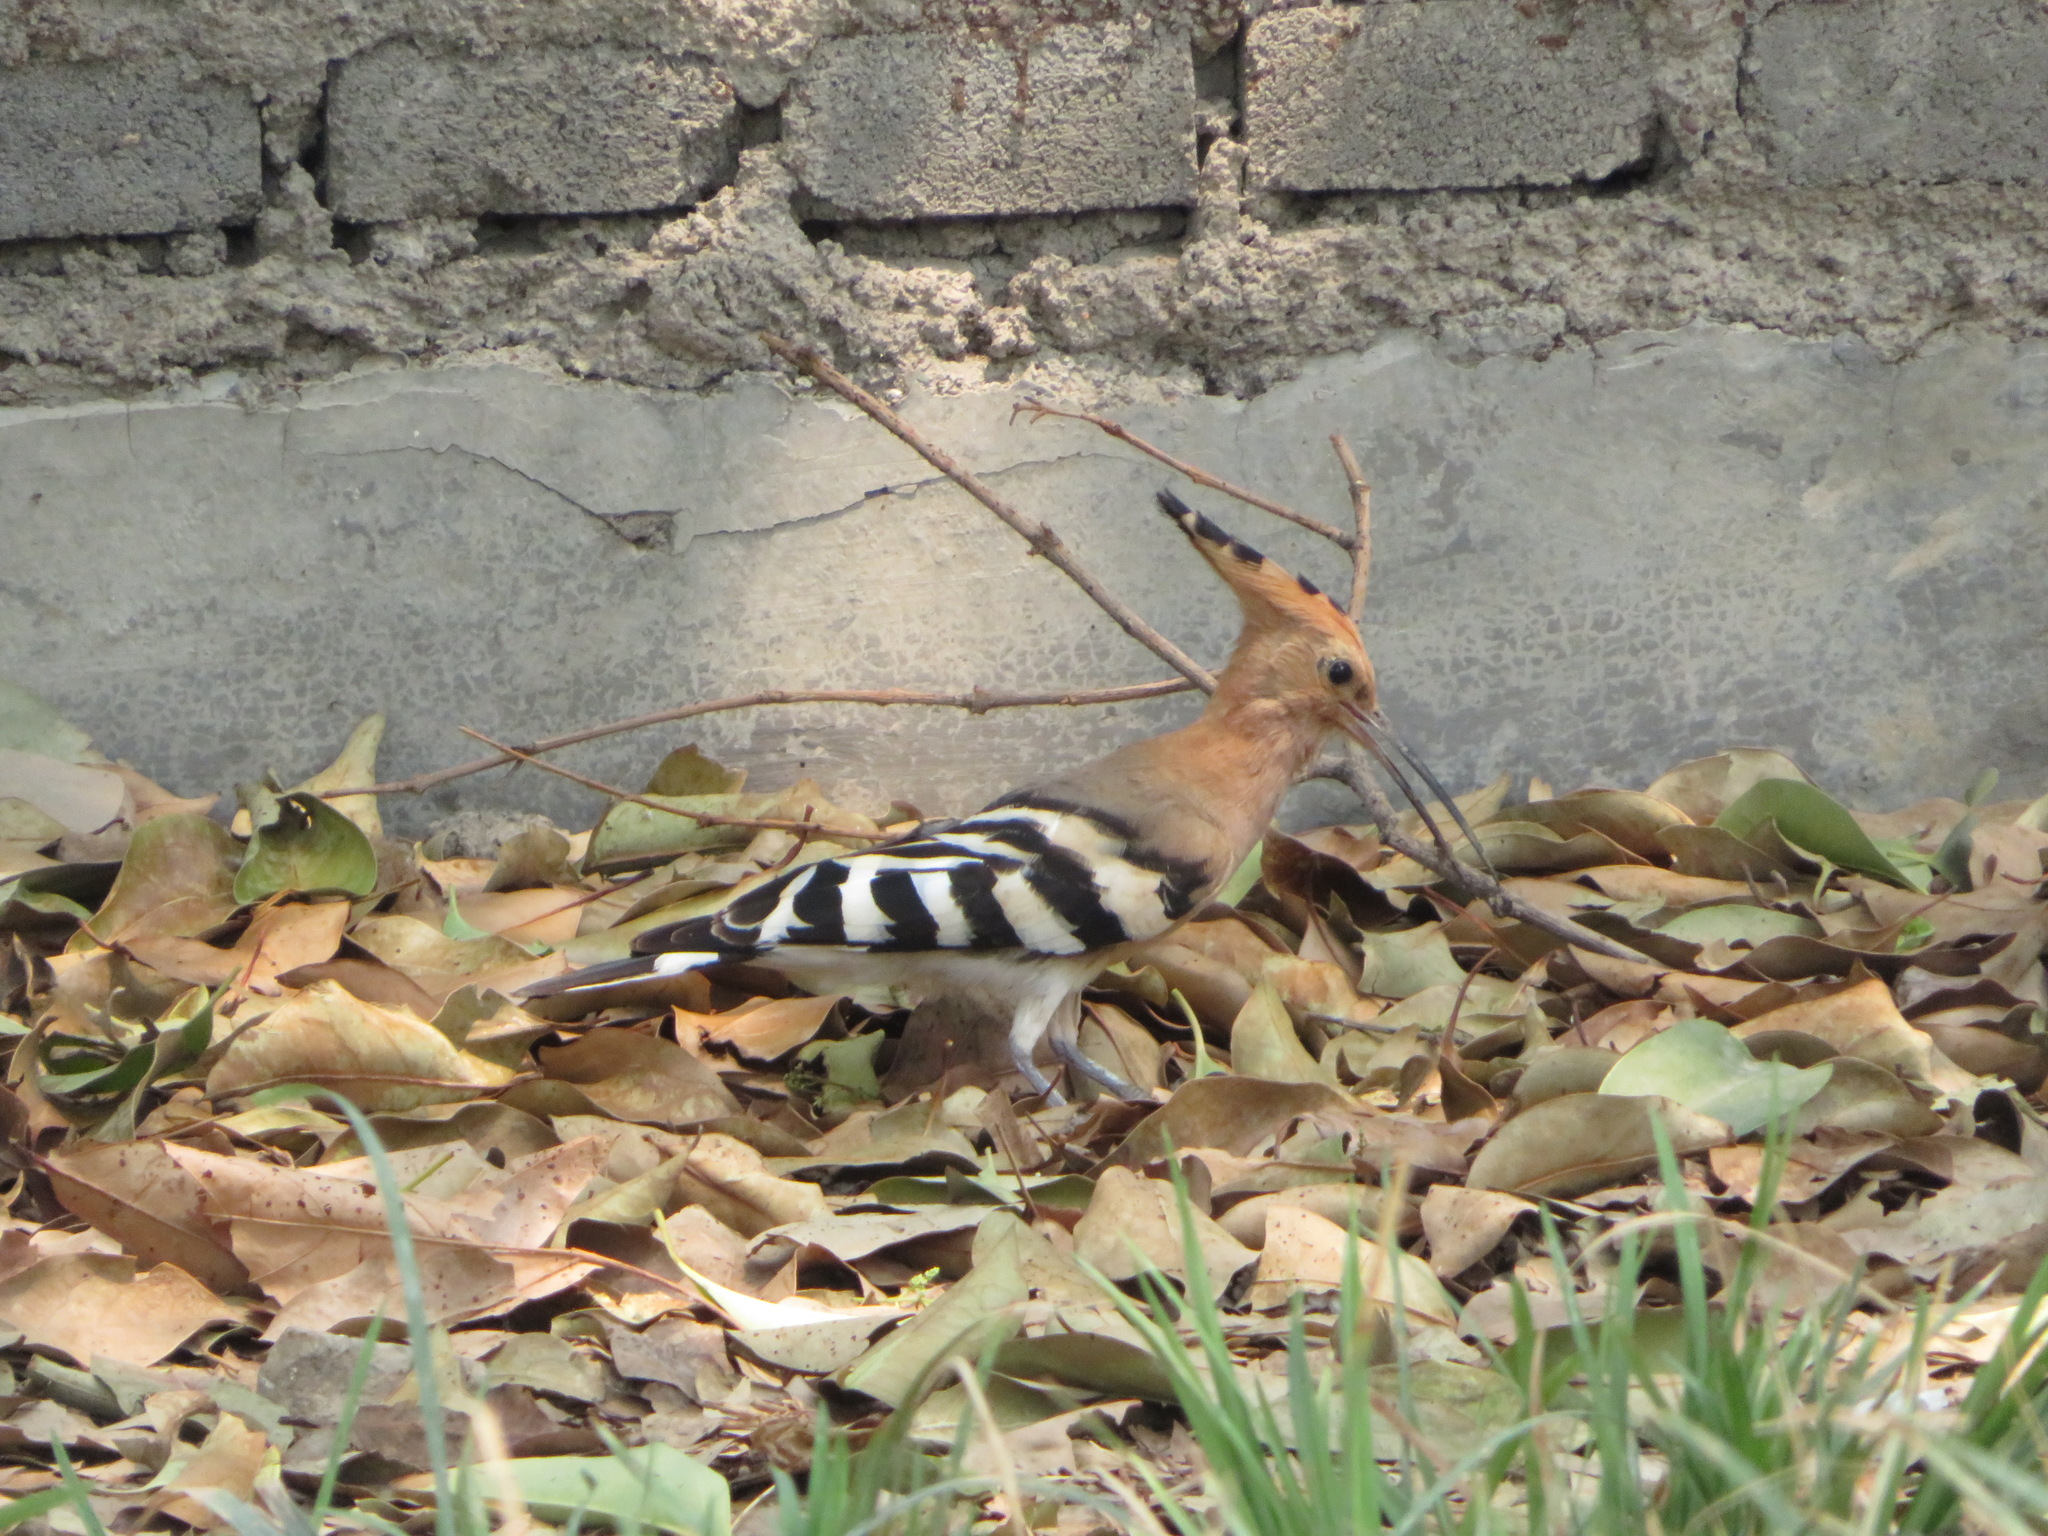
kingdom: Animalia
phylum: Chordata
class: Aves
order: Bucerotiformes
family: Upupidae
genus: Upupa
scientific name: Upupa epops
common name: Eurasian hoopoe
